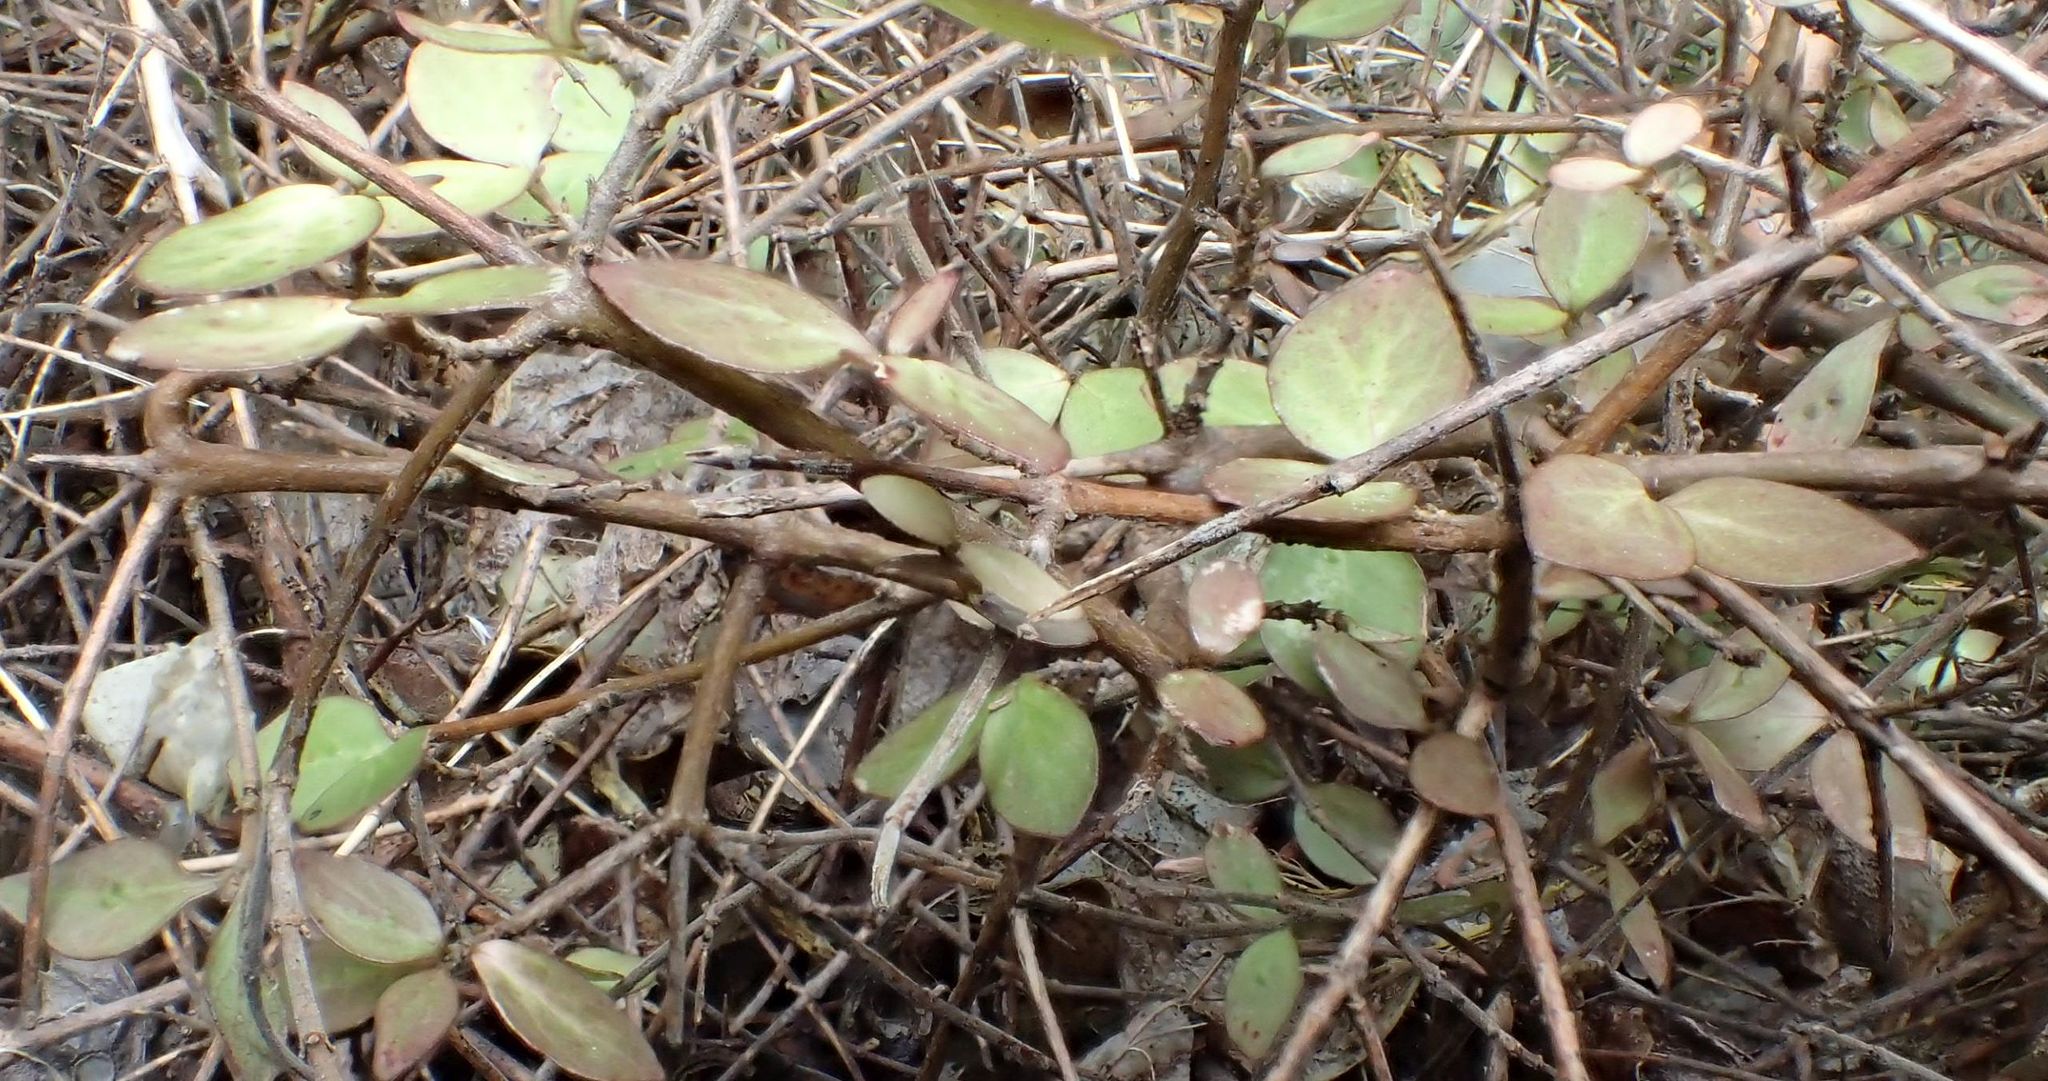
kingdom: Plantae
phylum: Tracheophyta
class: Magnoliopsida
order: Gentianales
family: Rubiaceae
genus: Coprosma
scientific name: Coprosma rhamnoides
